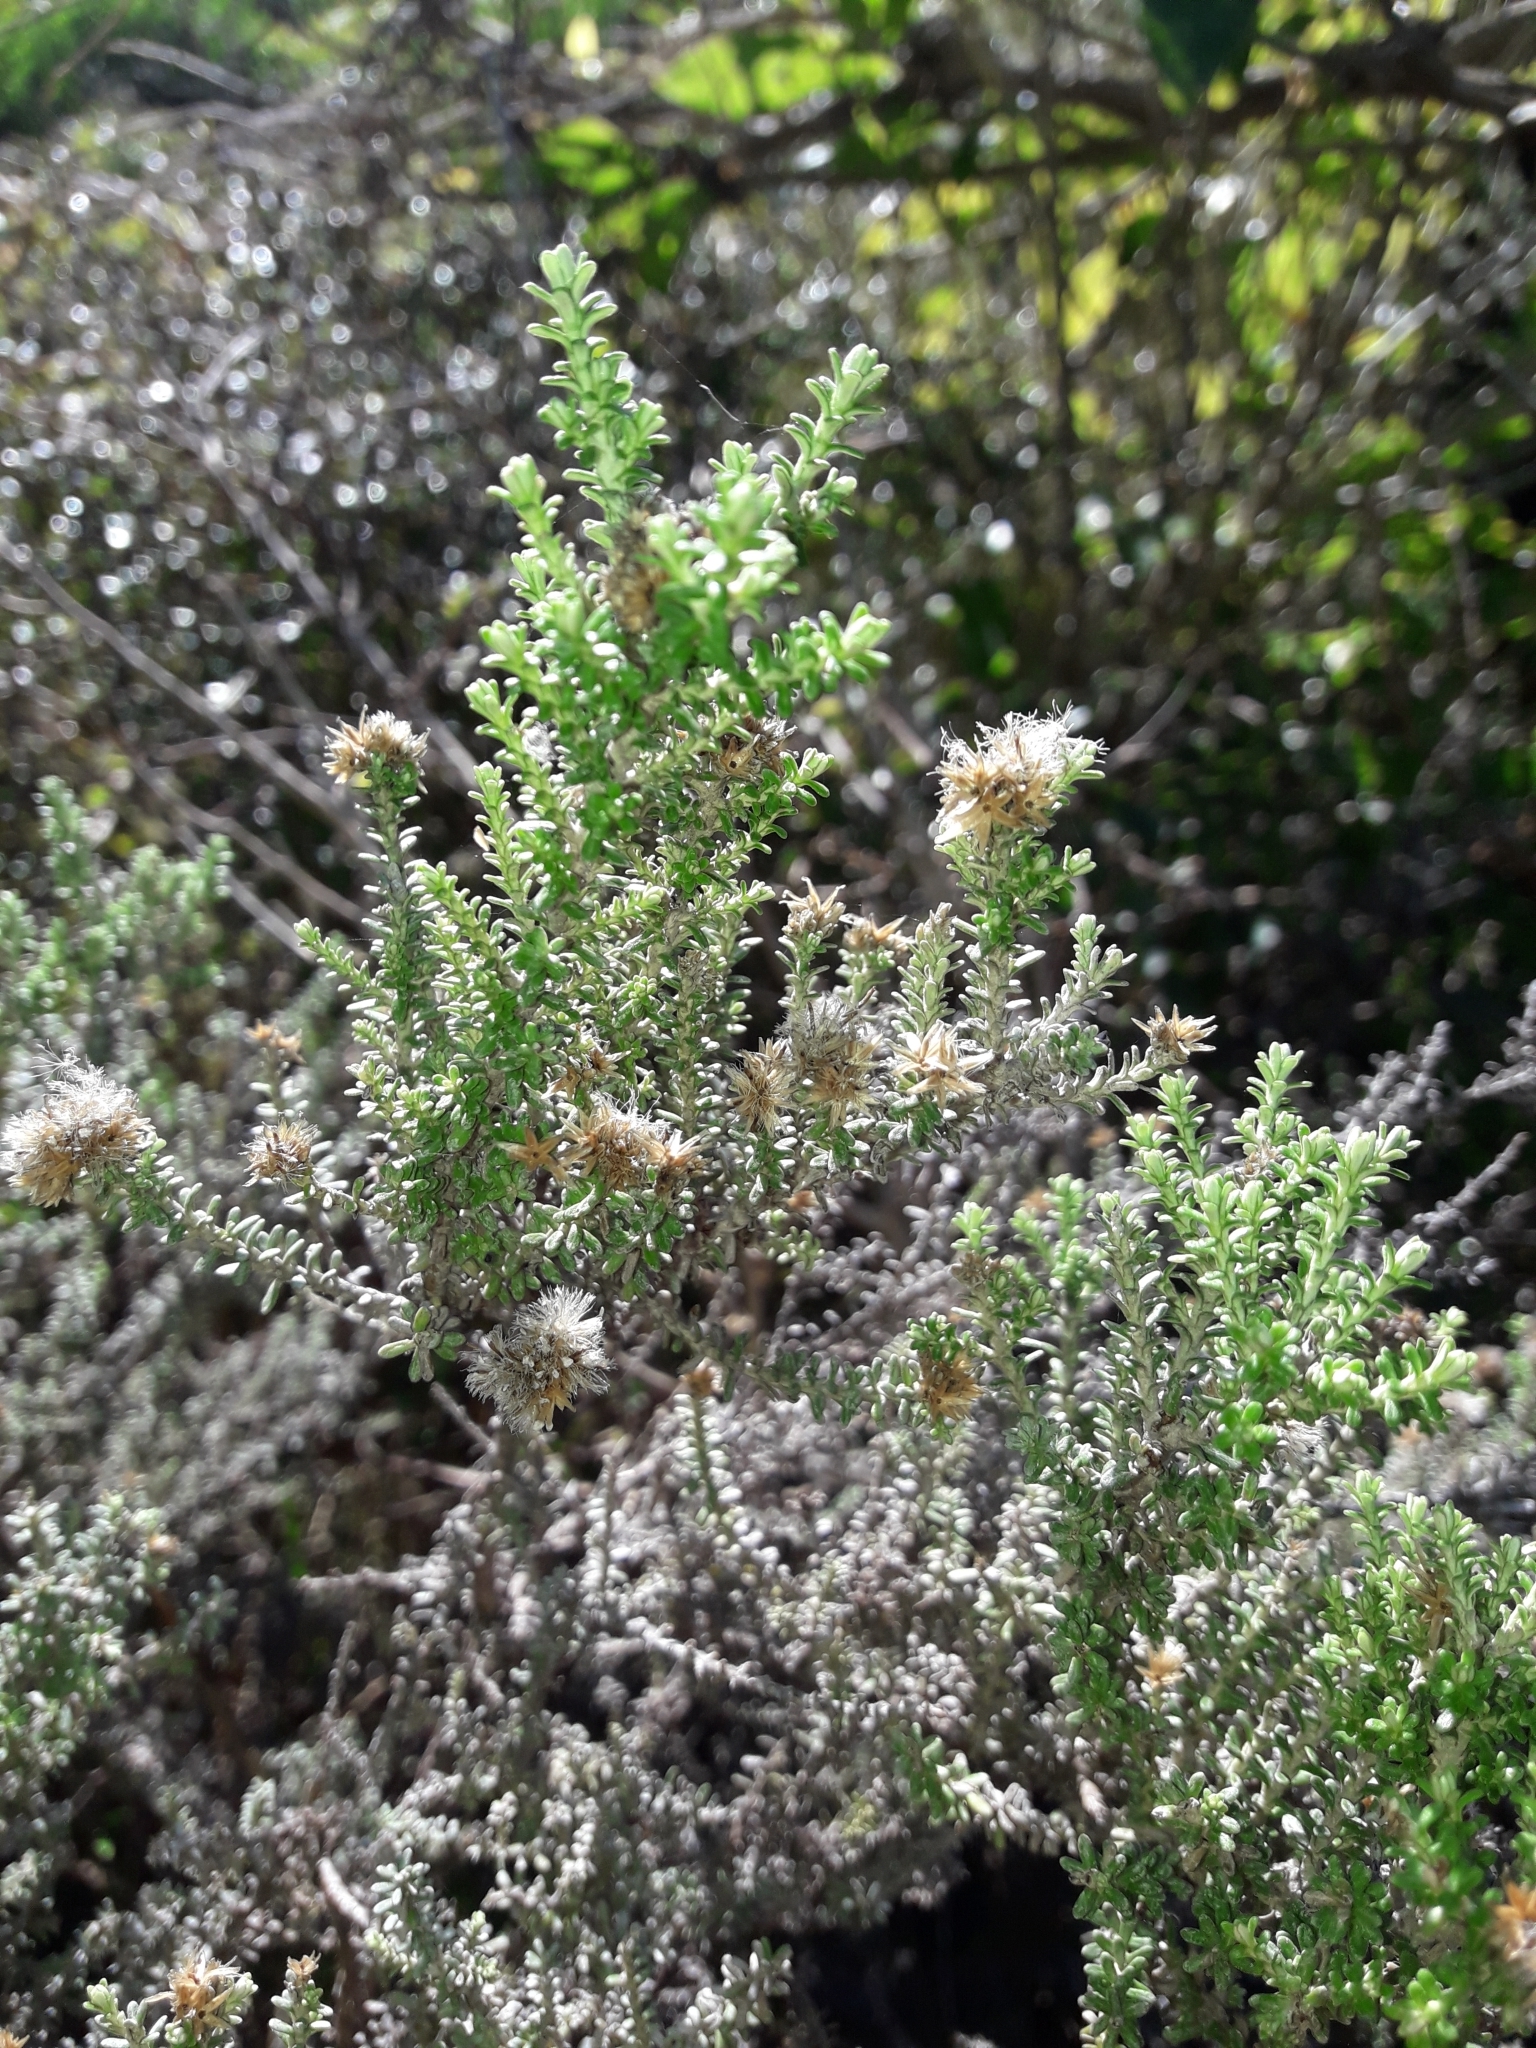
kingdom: Plantae
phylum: Tracheophyta
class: Magnoliopsida
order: Asterales
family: Asteraceae
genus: Ozothamnus
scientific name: Ozothamnus leptophyllus
